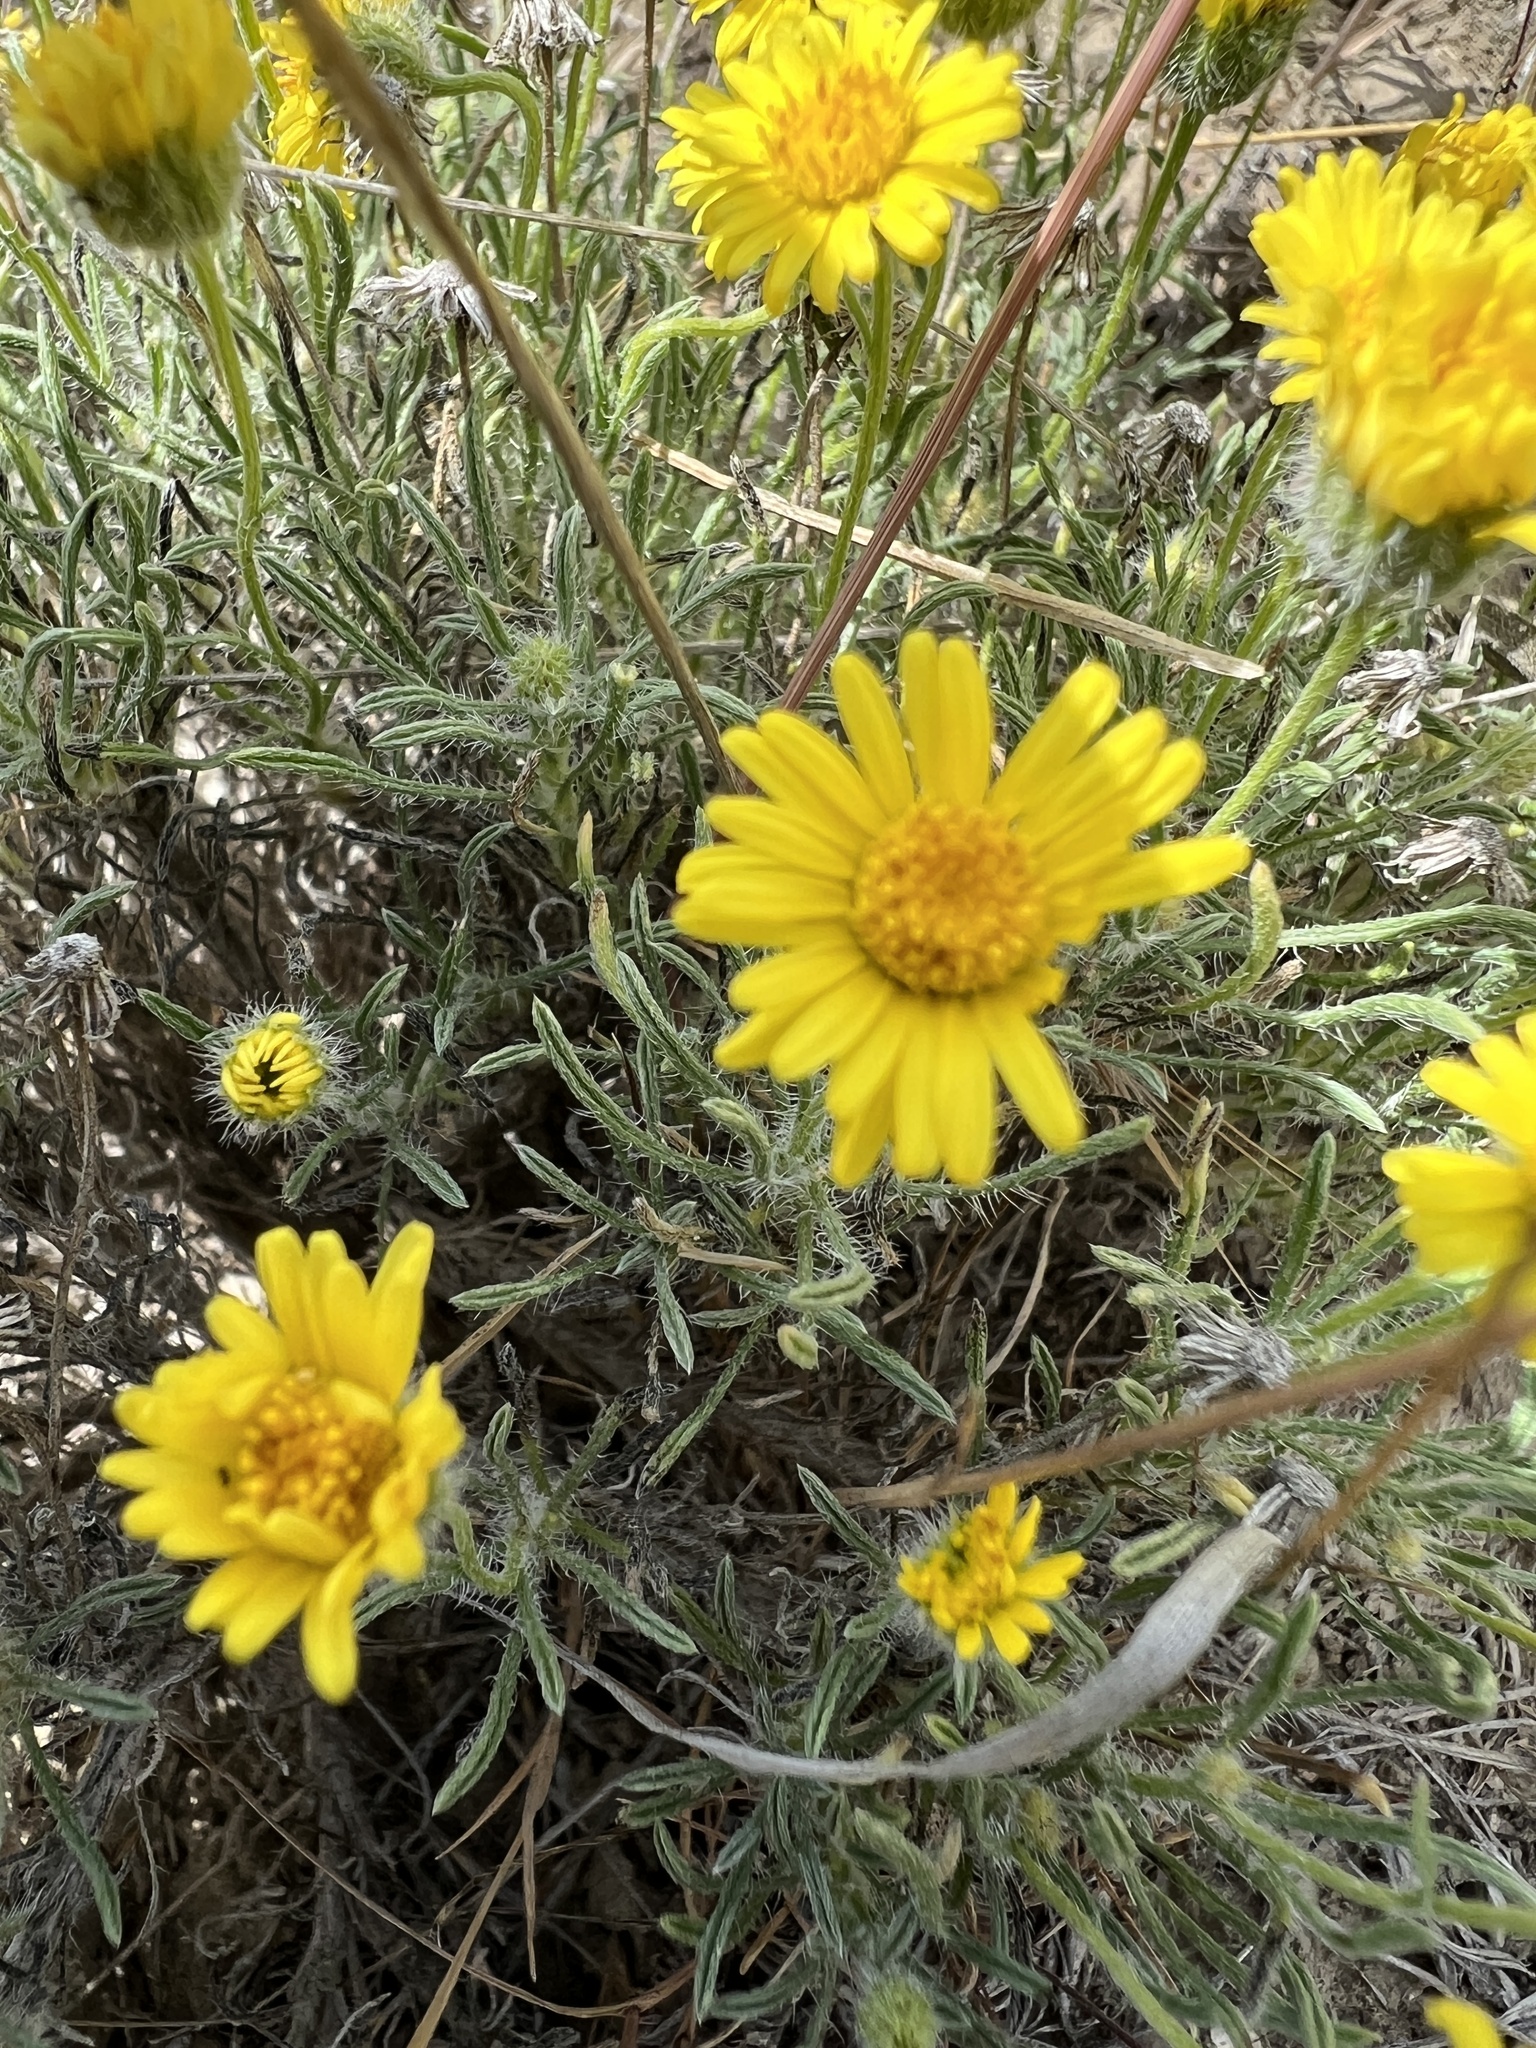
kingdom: Plantae
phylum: Tracheophyta
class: Magnoliopsida
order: Asterales
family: Asteraceae
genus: Erigeron
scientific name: Erigeron piperianus
